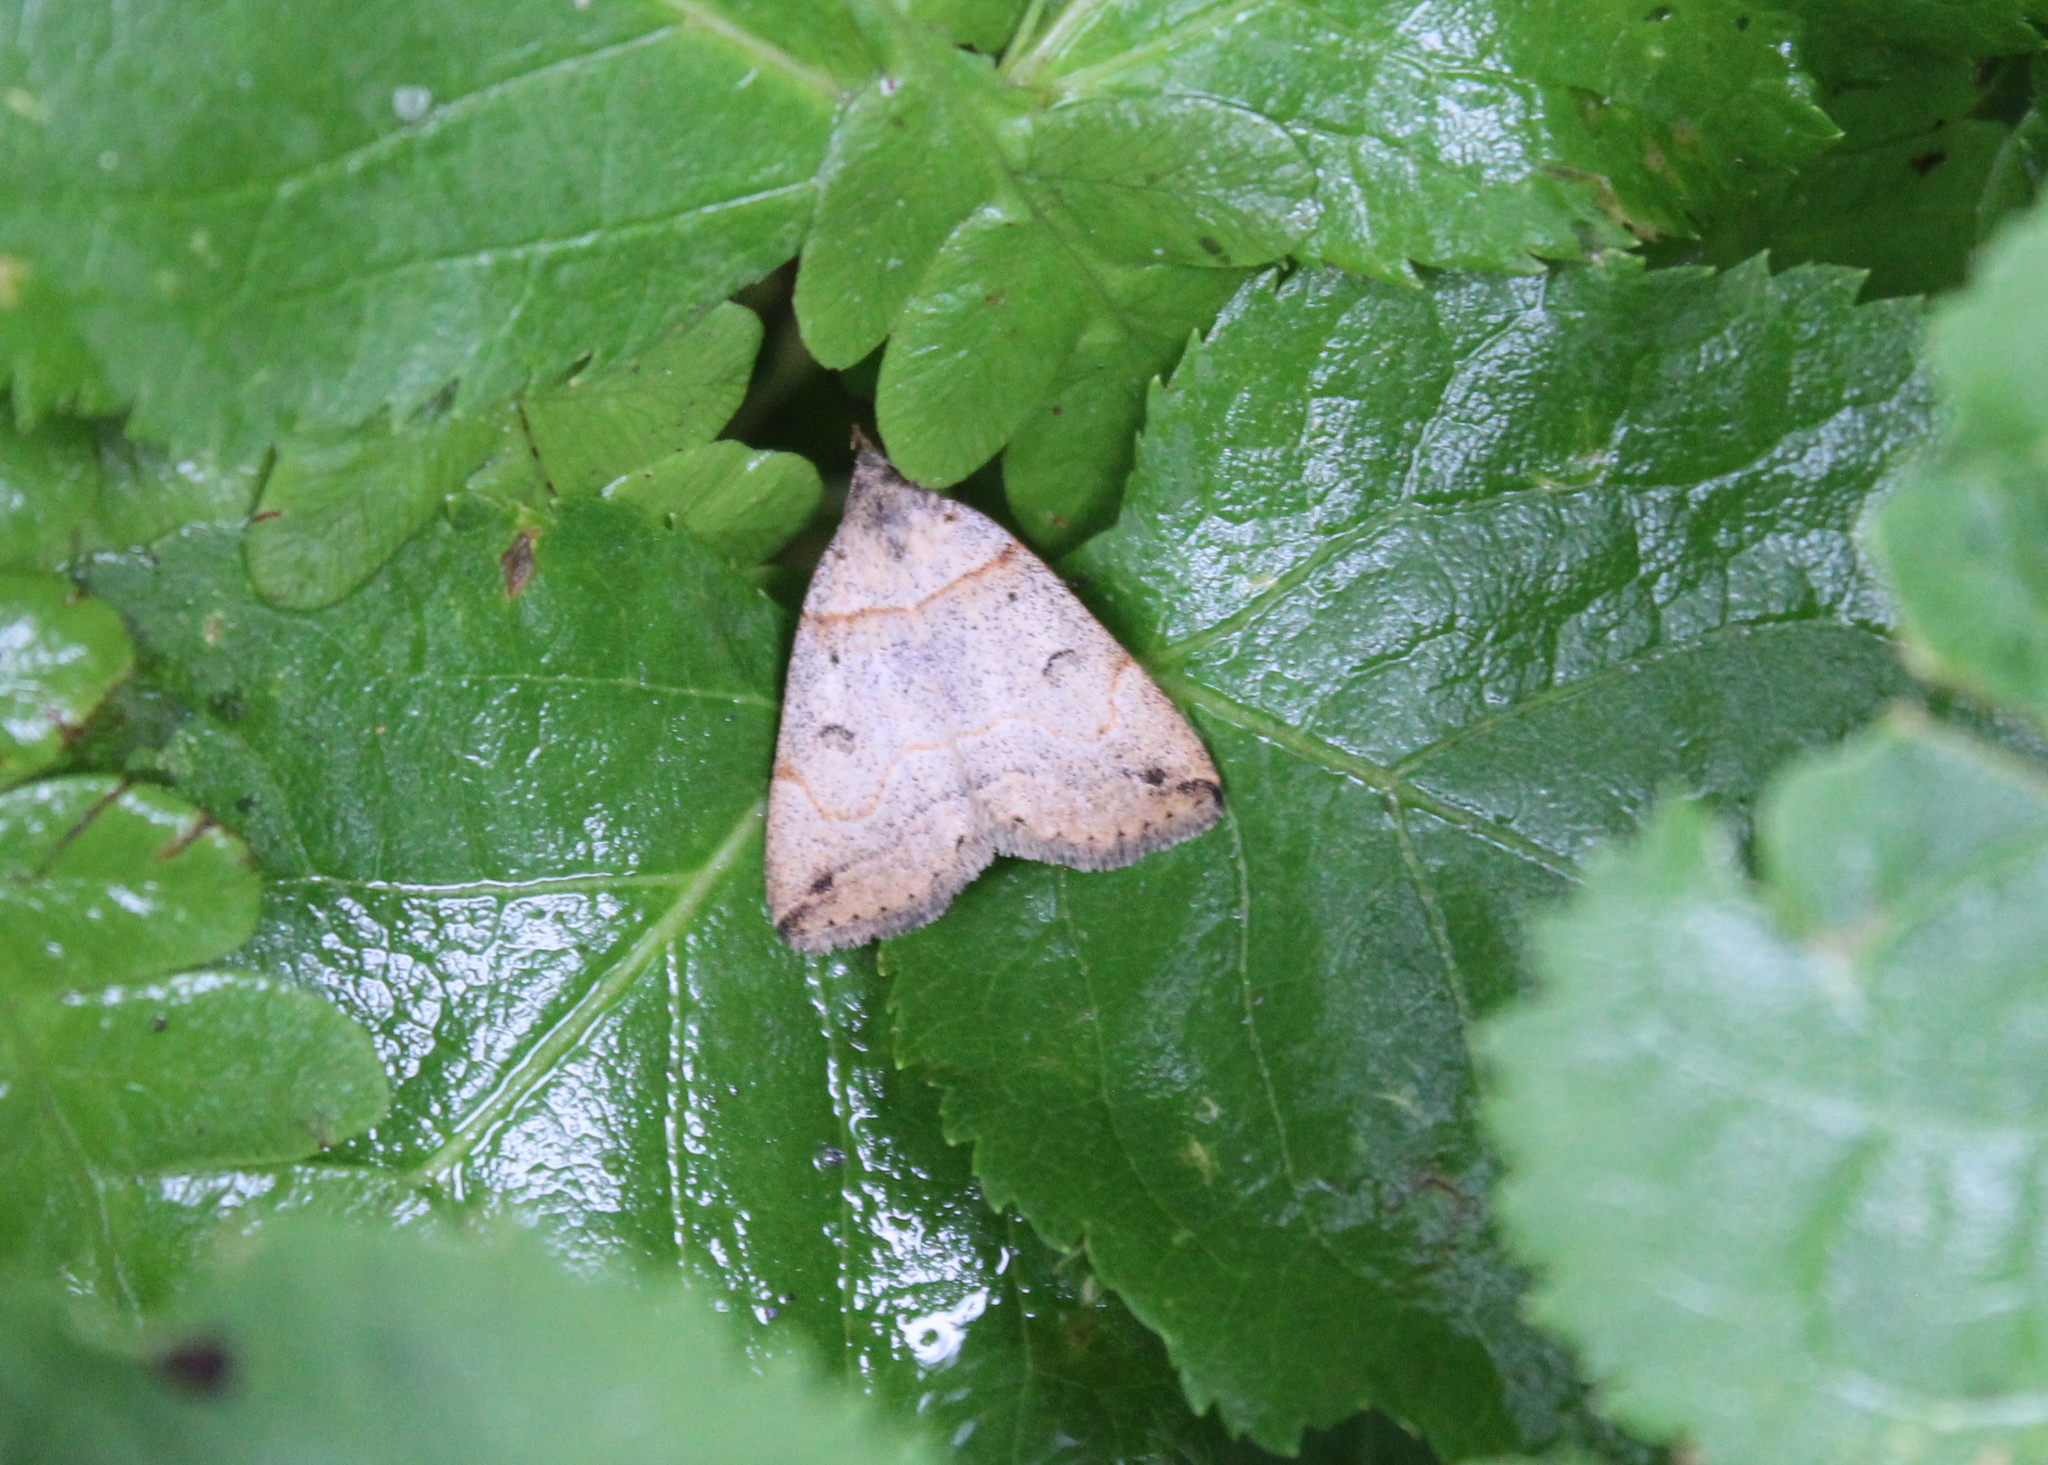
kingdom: Animalia
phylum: Arthropoda
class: Insecta
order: Lepidoptera
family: Erebidae
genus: Zanclognatha
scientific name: Zanclognatha laevigata
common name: Variable fan-foot
